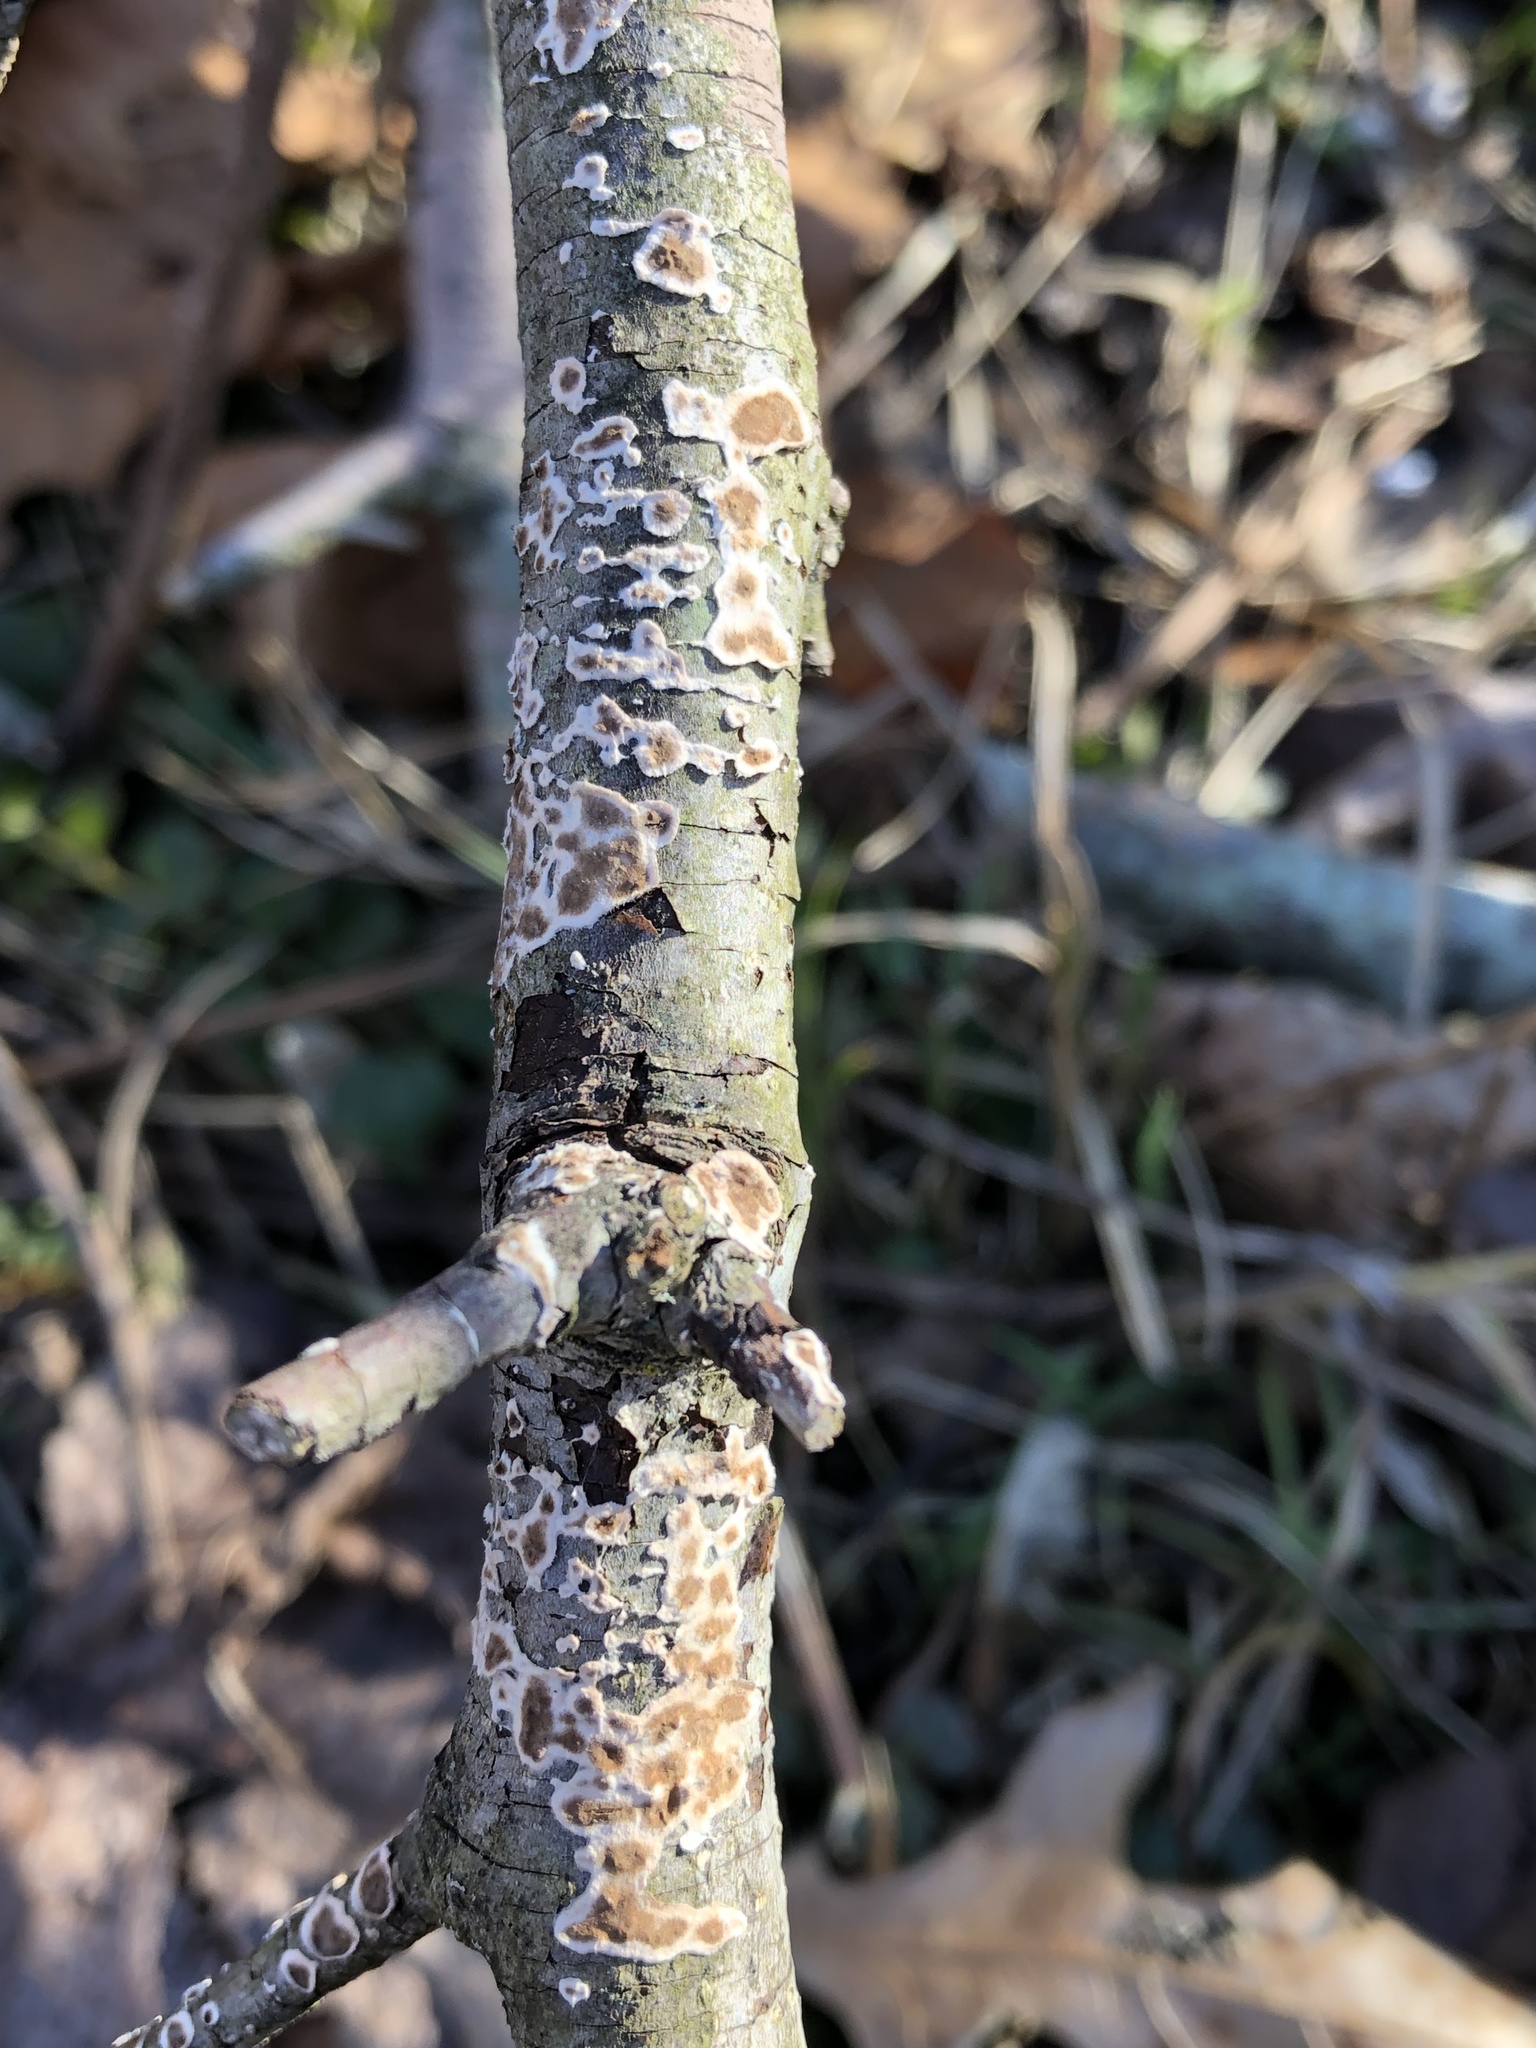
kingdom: Fungi
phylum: Basidiomycota
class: Agaricomycetes
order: Russulales
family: Peniophoraceae
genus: Peniophora
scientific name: Peniophora albobadia
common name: Giraffe spots
